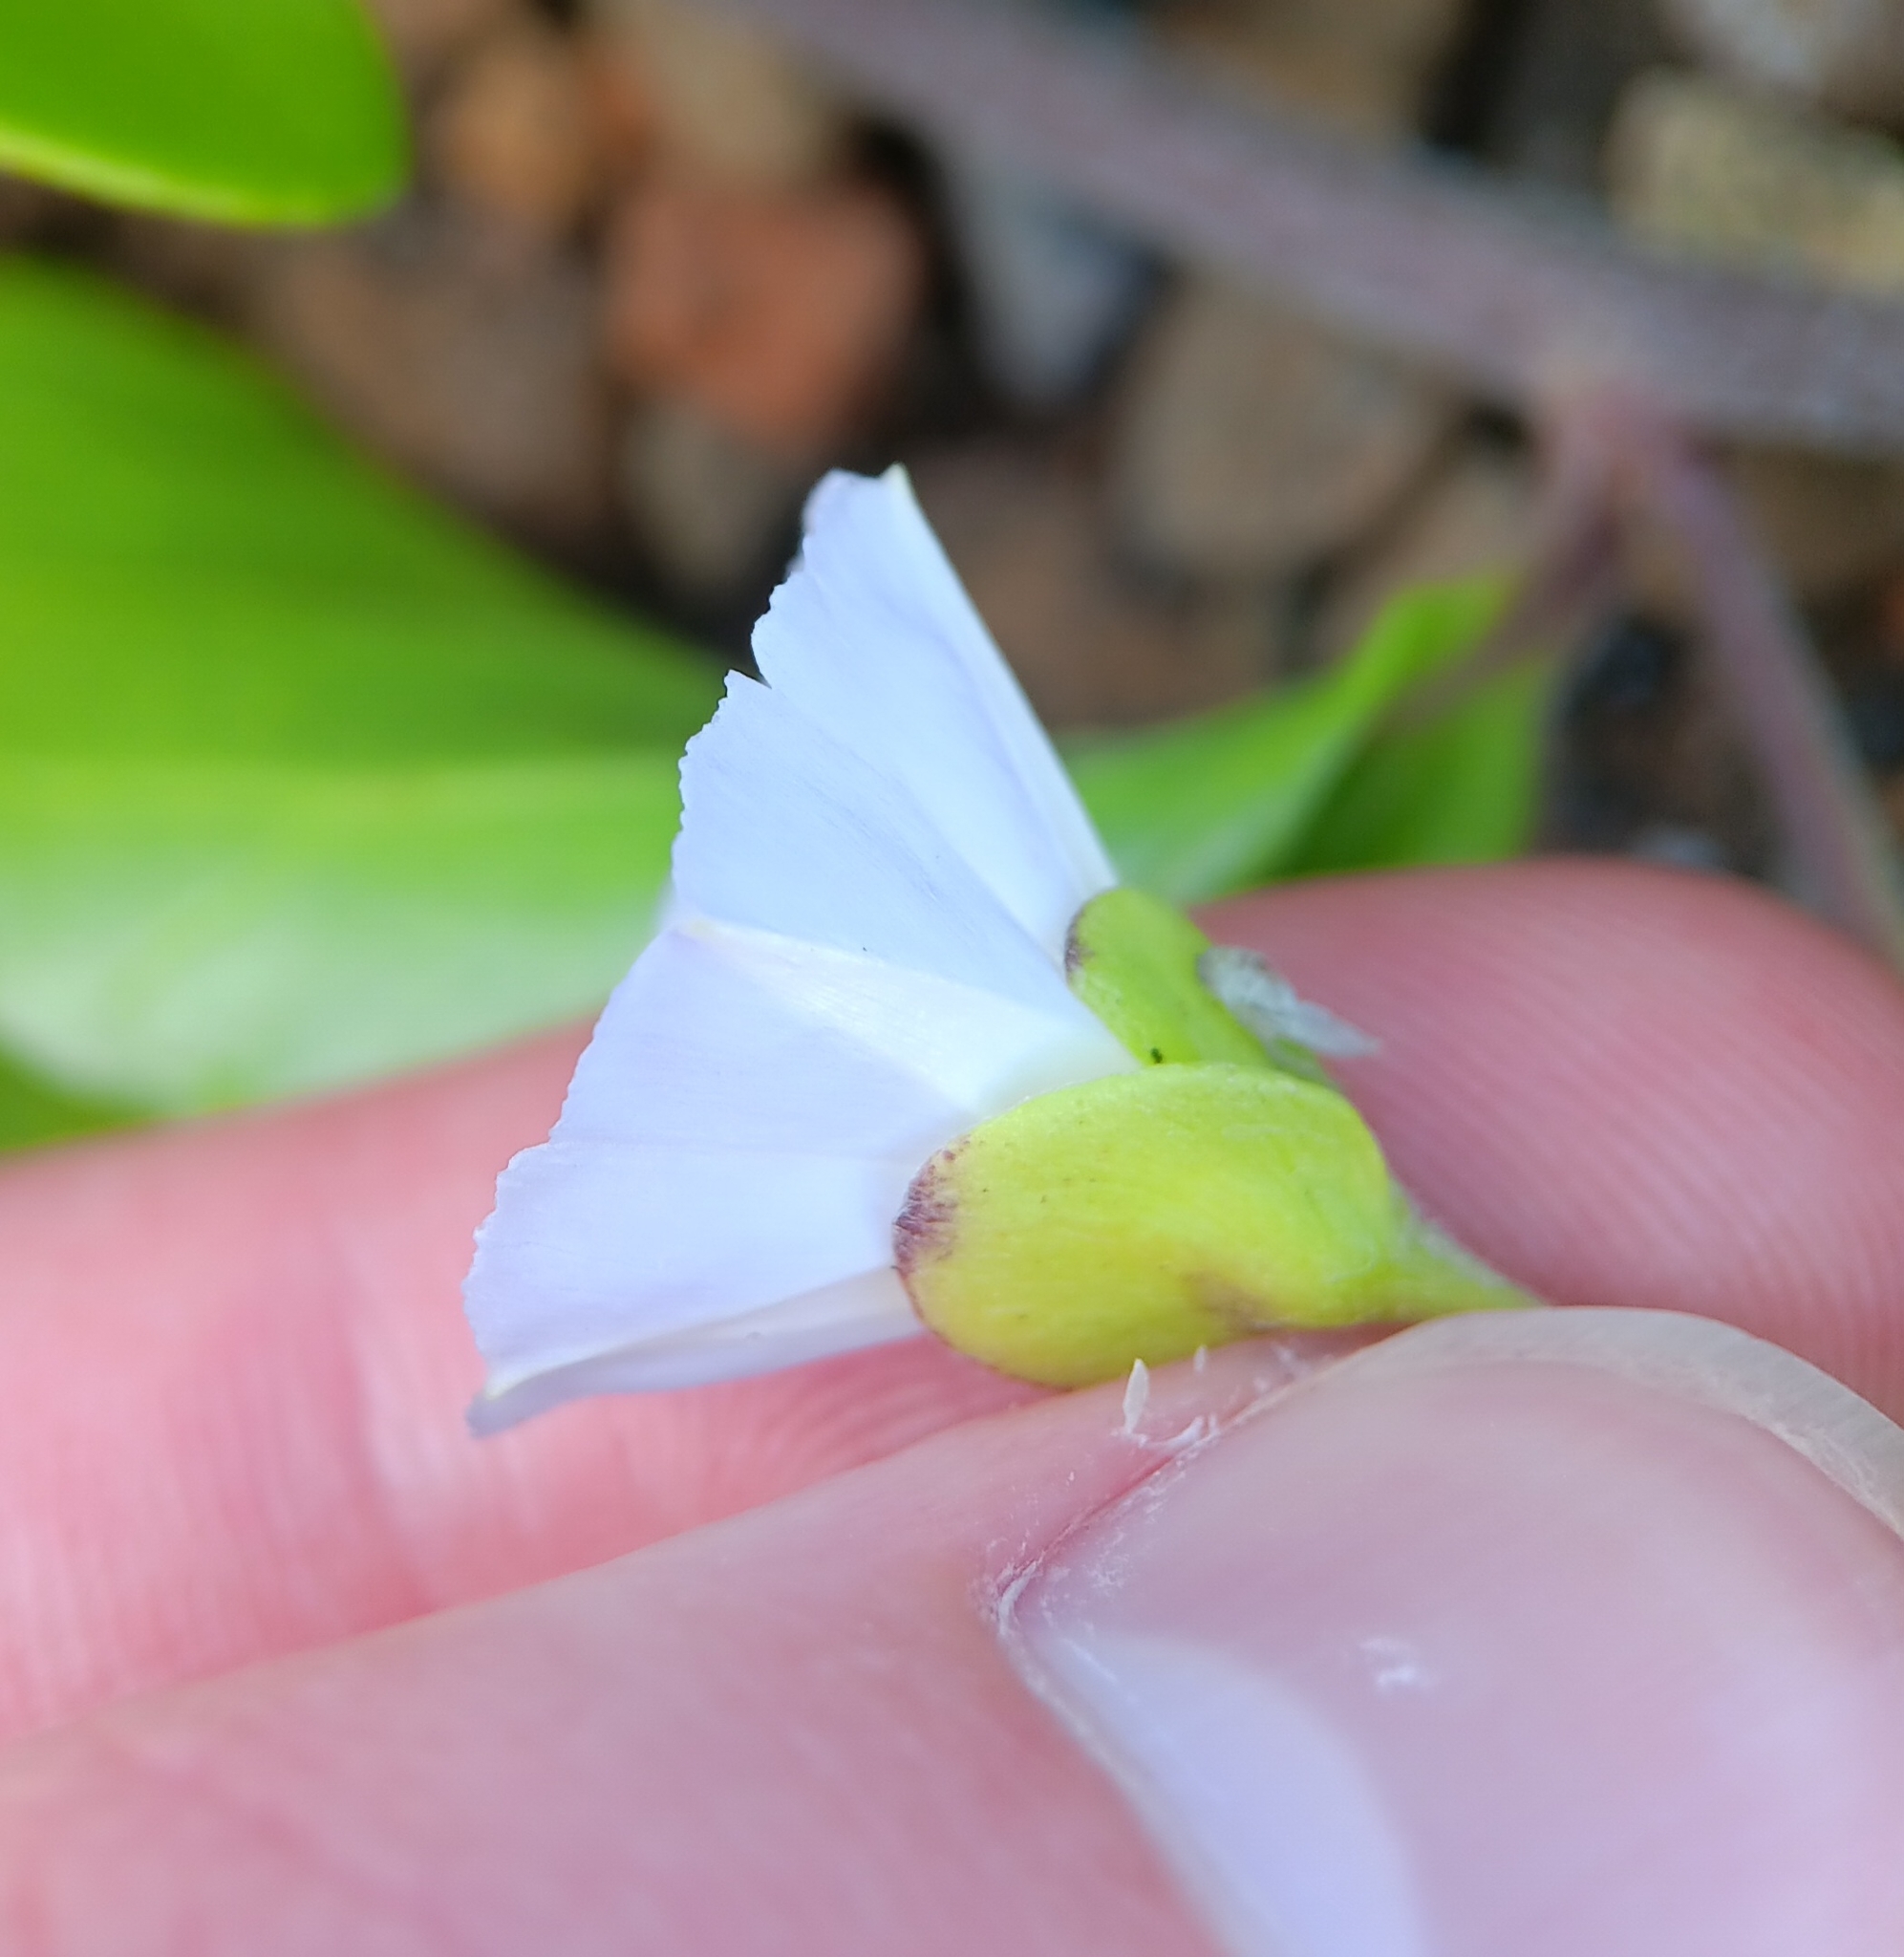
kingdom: Plantae
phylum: Tracheophyta
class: Magnoliopsida
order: Solanales
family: Convolvulaceae
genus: Jacquemontia
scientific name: Jacquemontia sandwicensis
